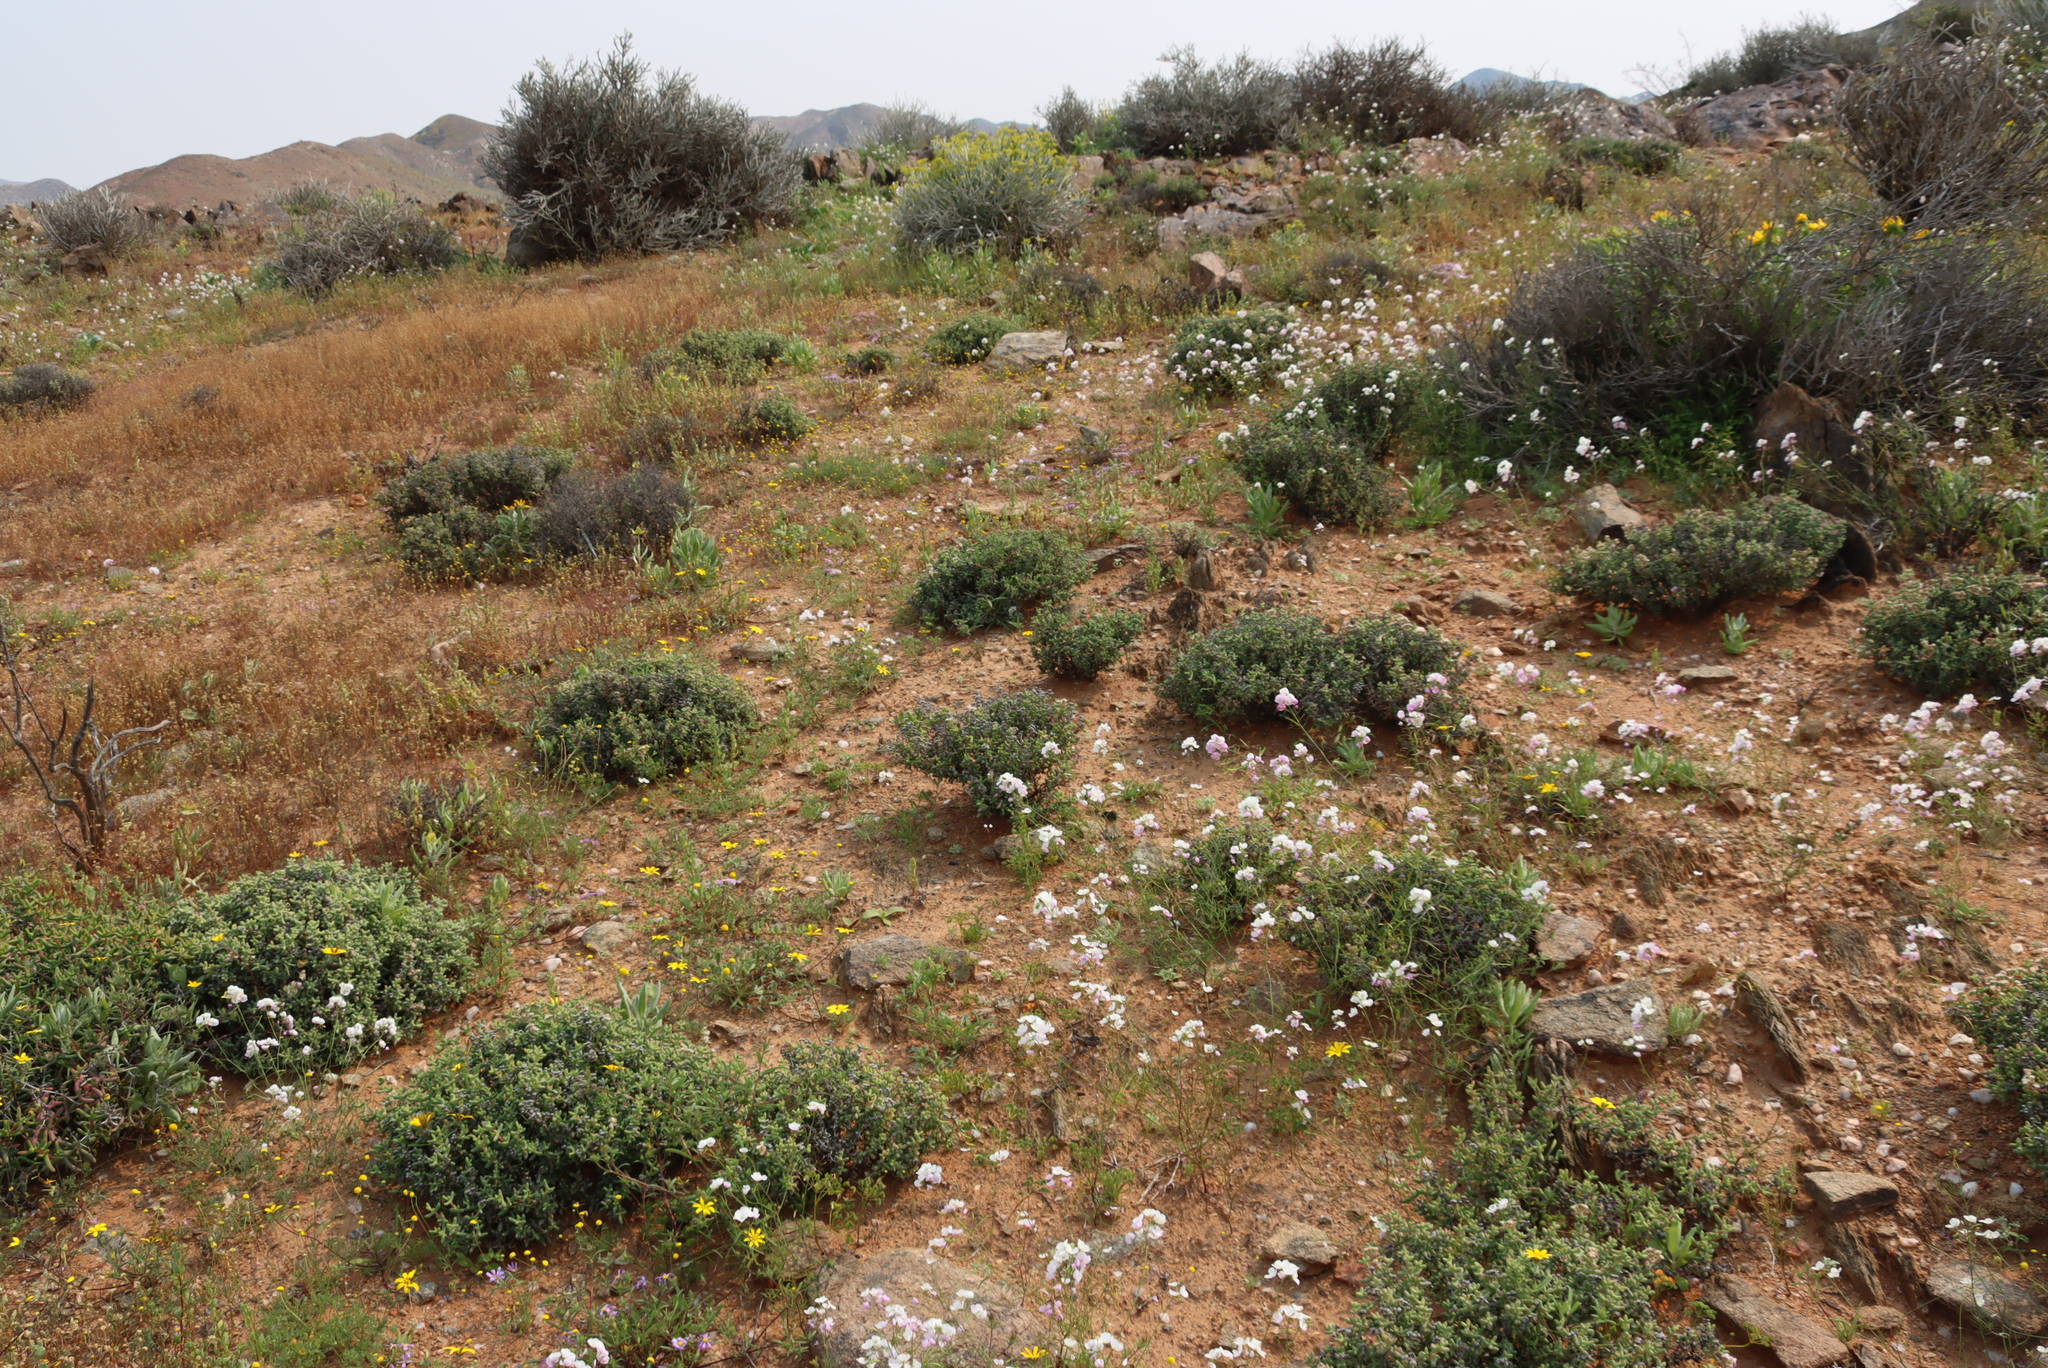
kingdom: Plantae
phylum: Tracheophyta
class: Magnoliopsida
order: Brassicales
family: Brassicaceae
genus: Heliophila
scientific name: Heliophila variabilis
